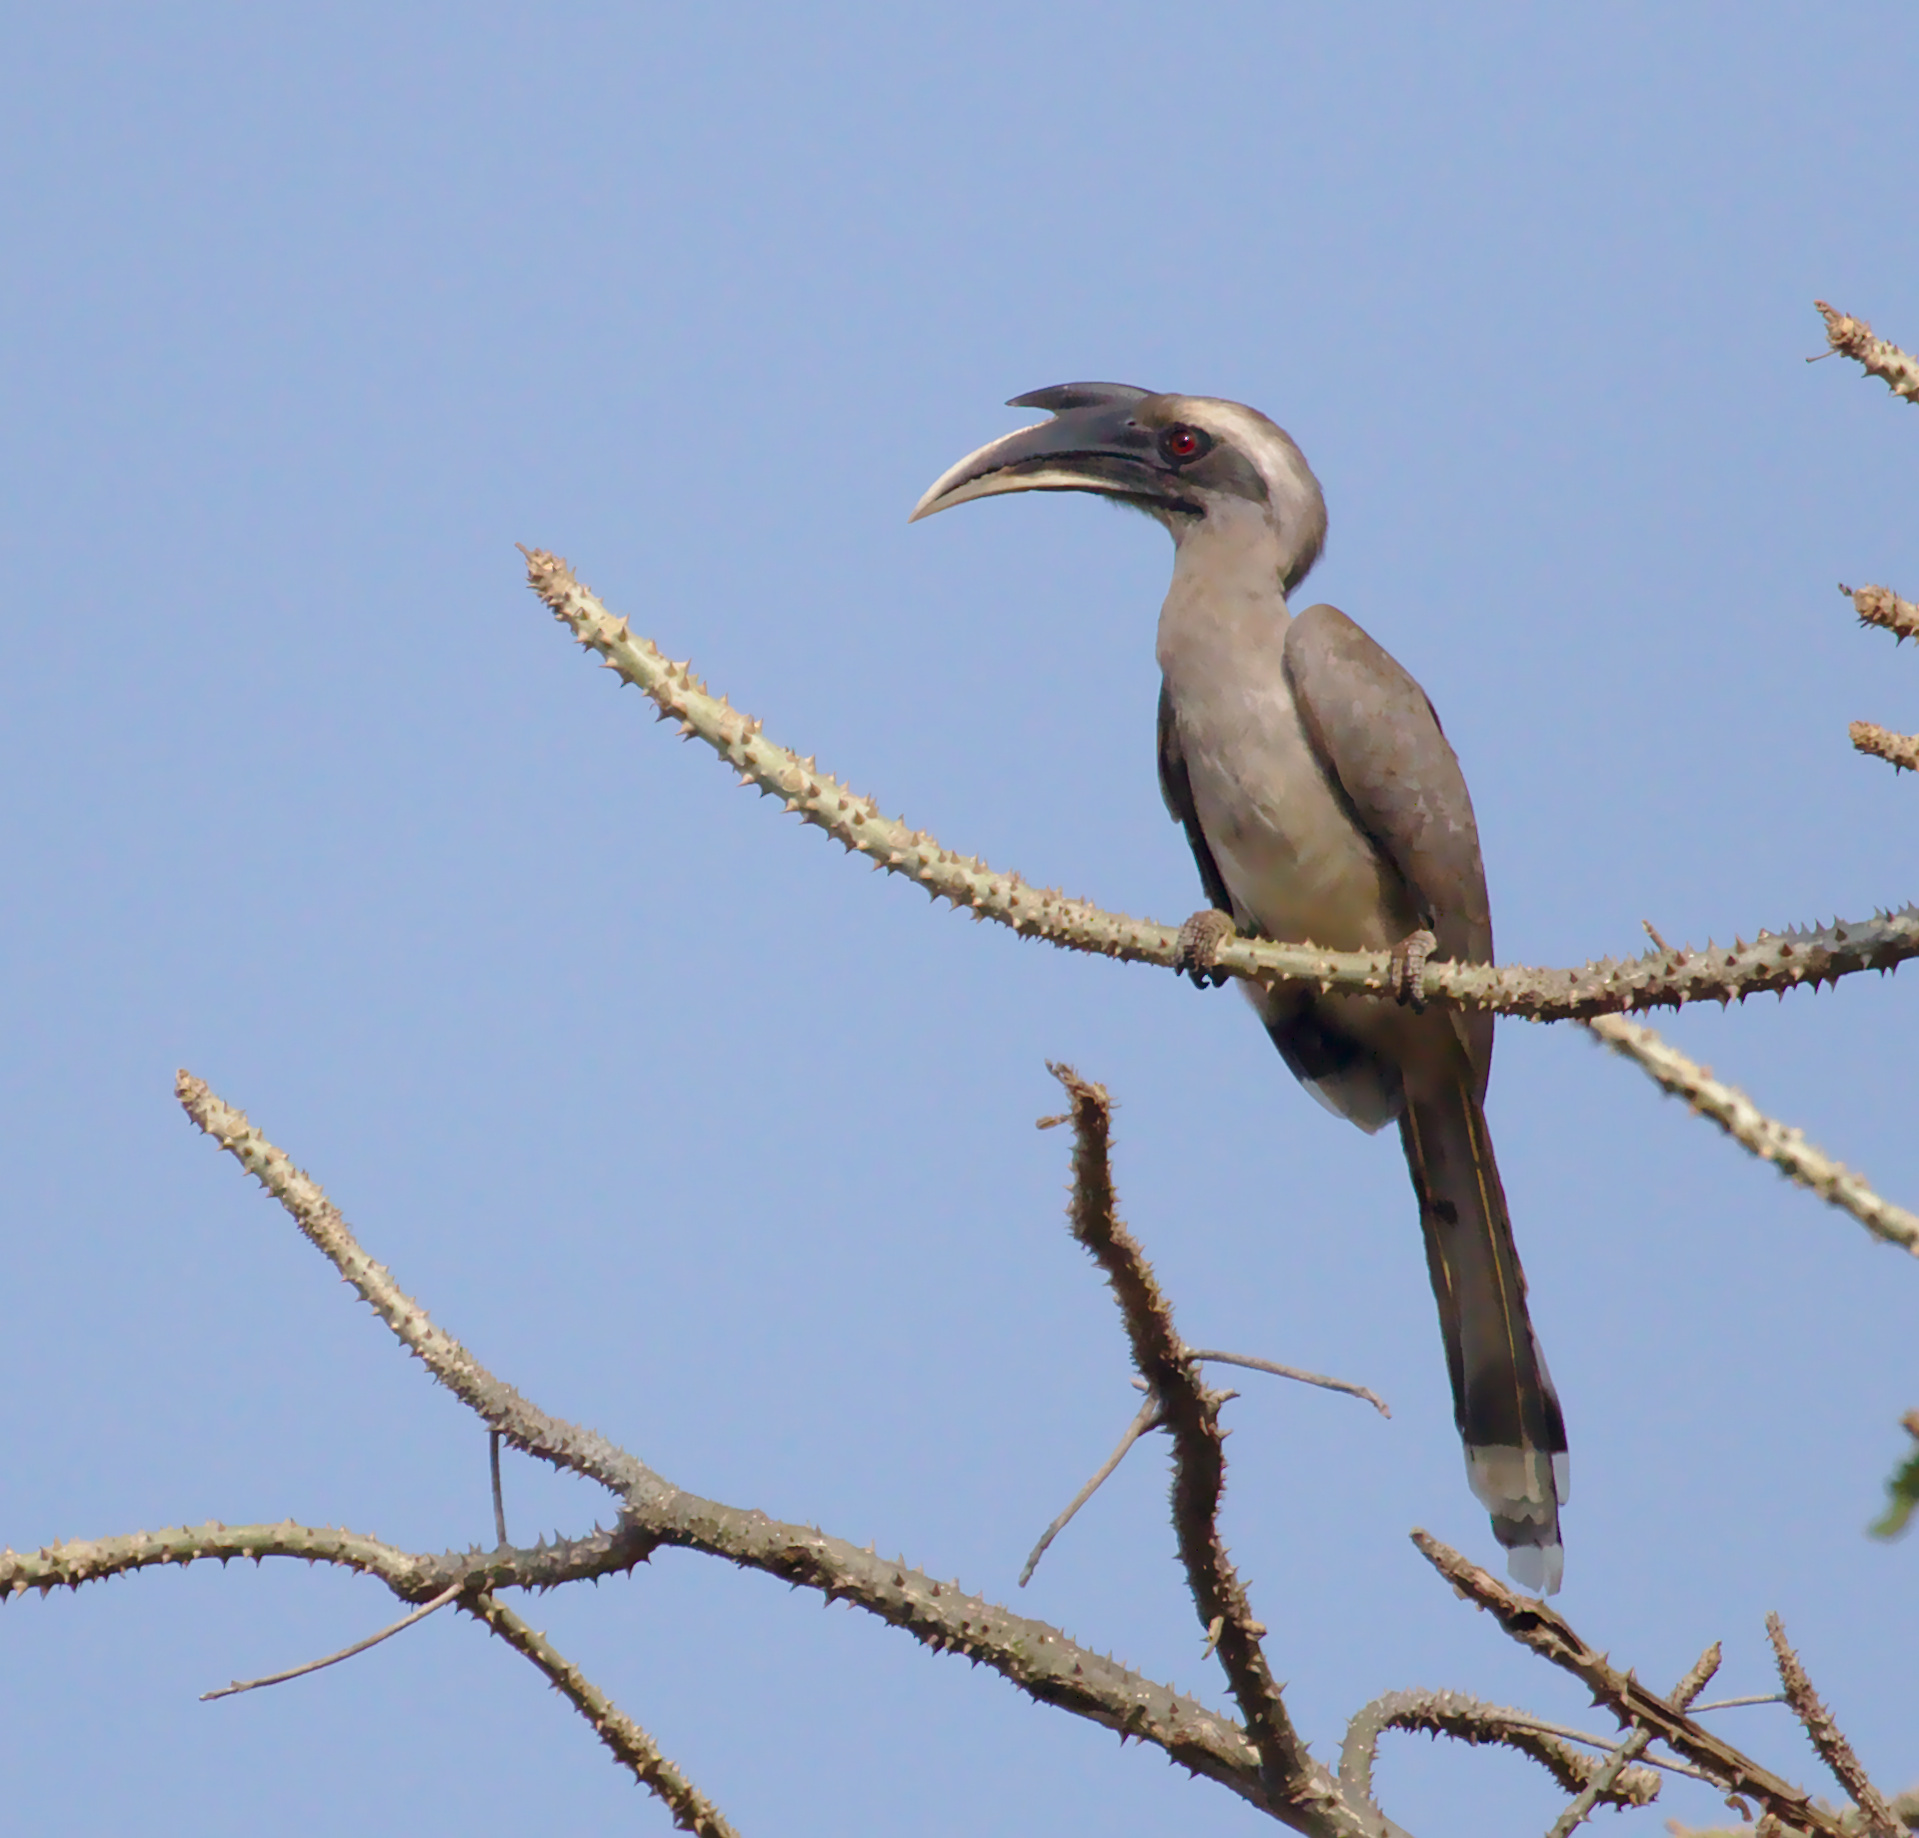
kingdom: Animalia
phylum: Chordata
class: Aves
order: Bucerotiformes
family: Bucerotidae
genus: Ocyceros
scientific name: Ocyceros birostris
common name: Indian grey hornbill
